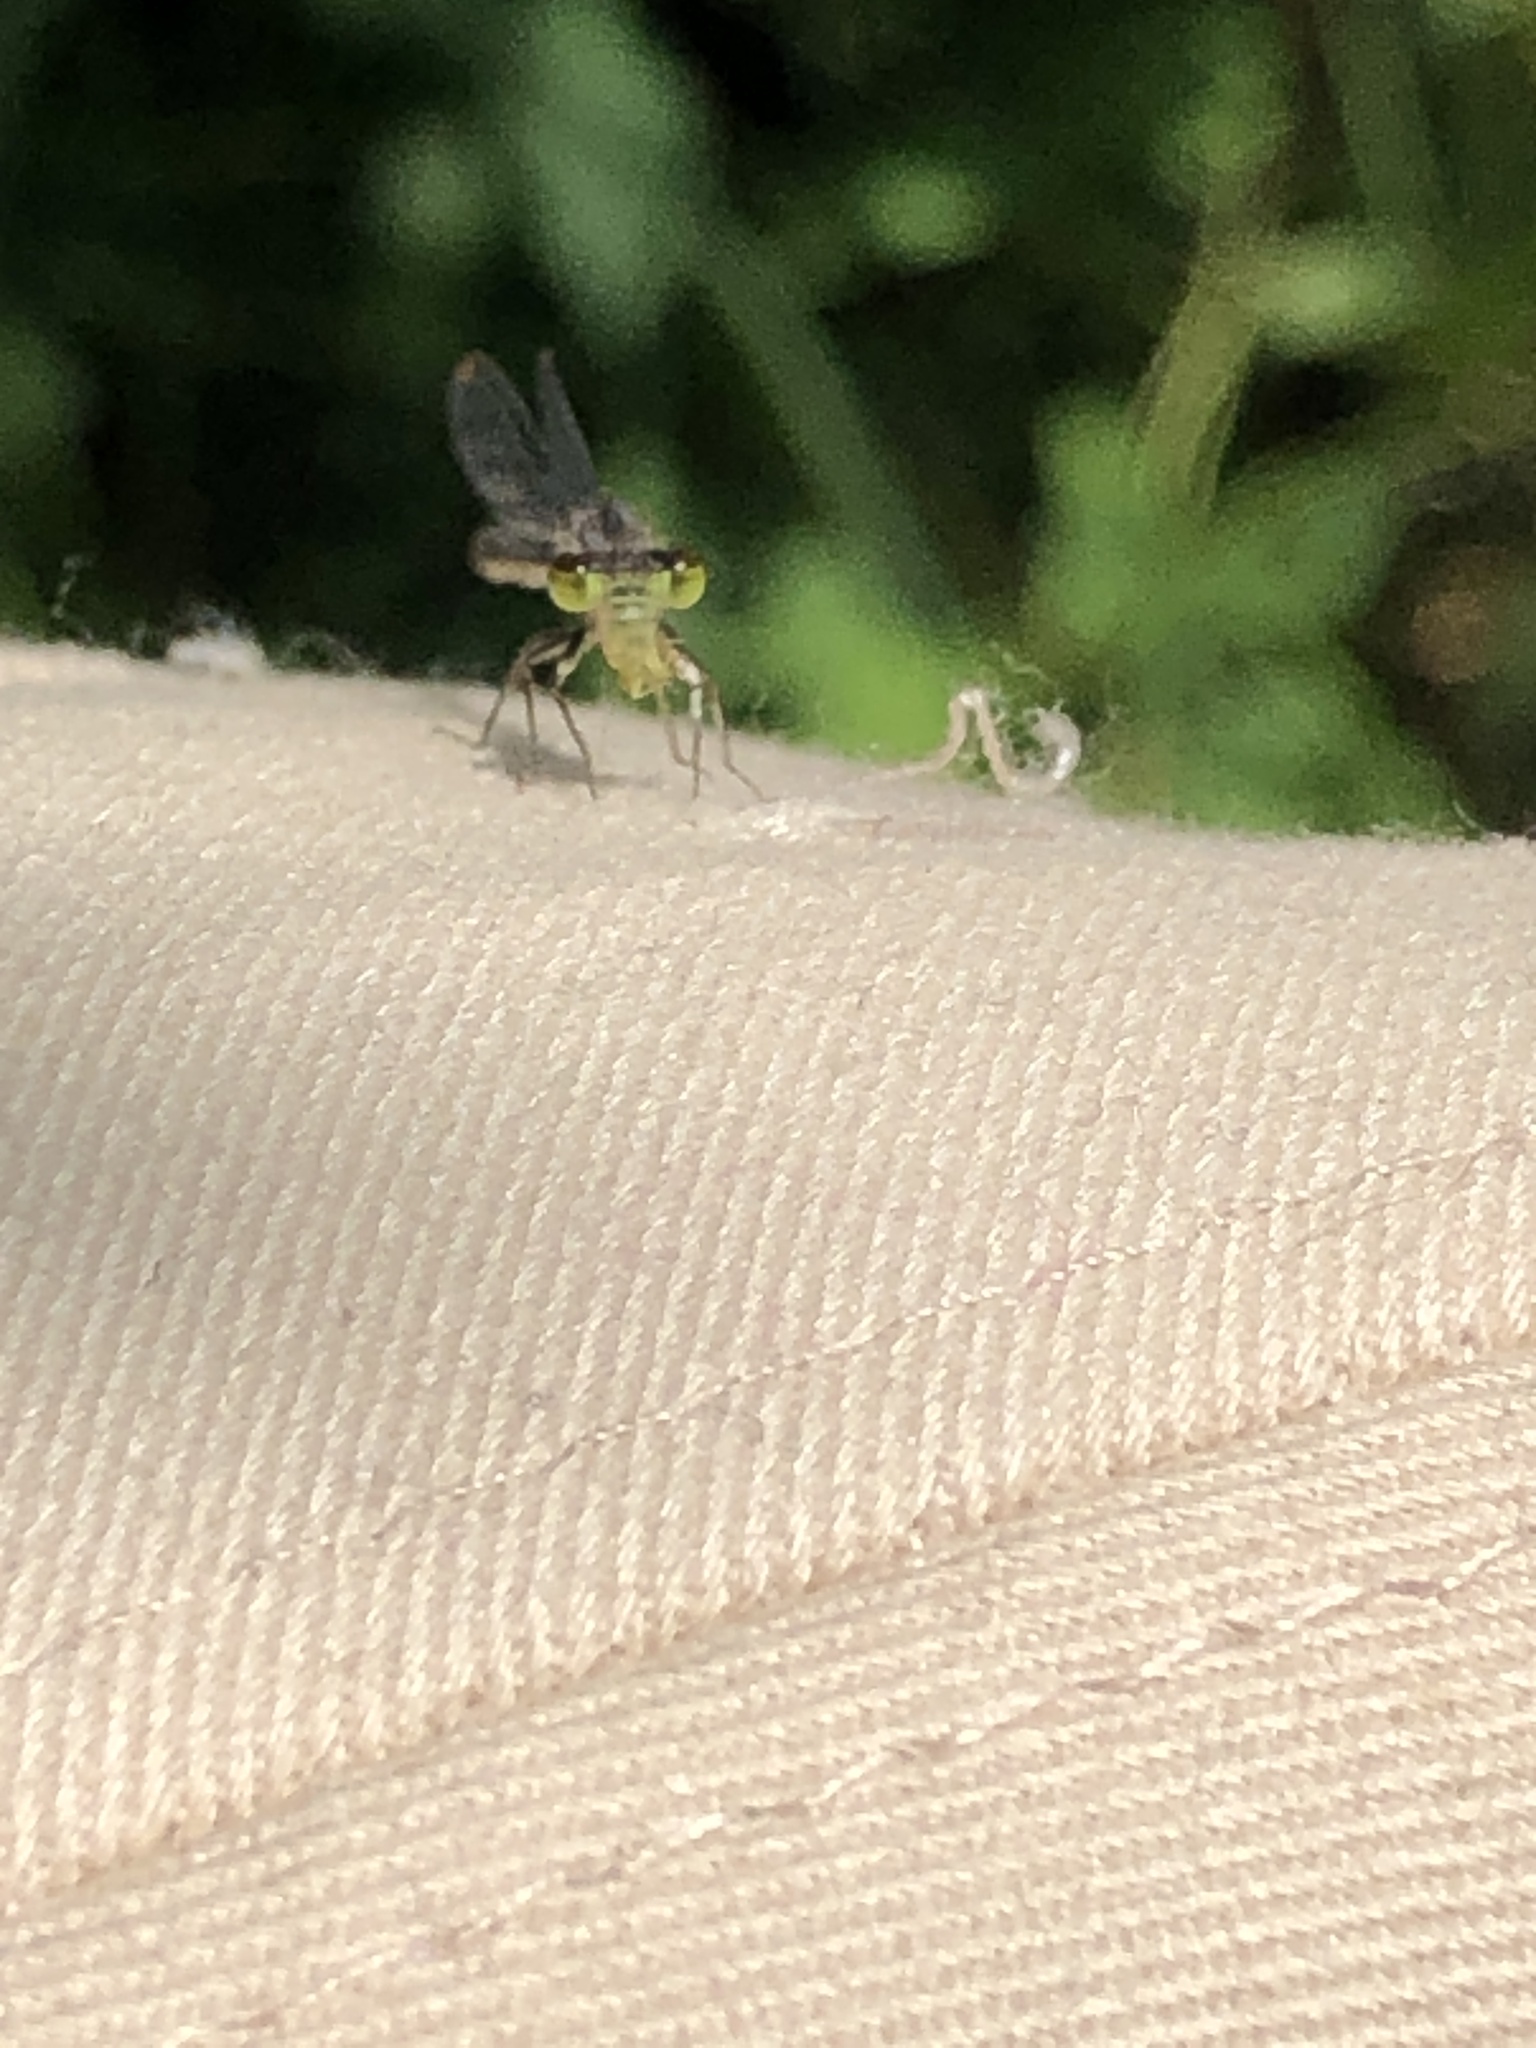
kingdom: Animalia
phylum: Arthropoda
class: Insecta
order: Odonata
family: Coenagrionidae
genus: Ischnura
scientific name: Ischnura cervula
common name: Pacific forktail
